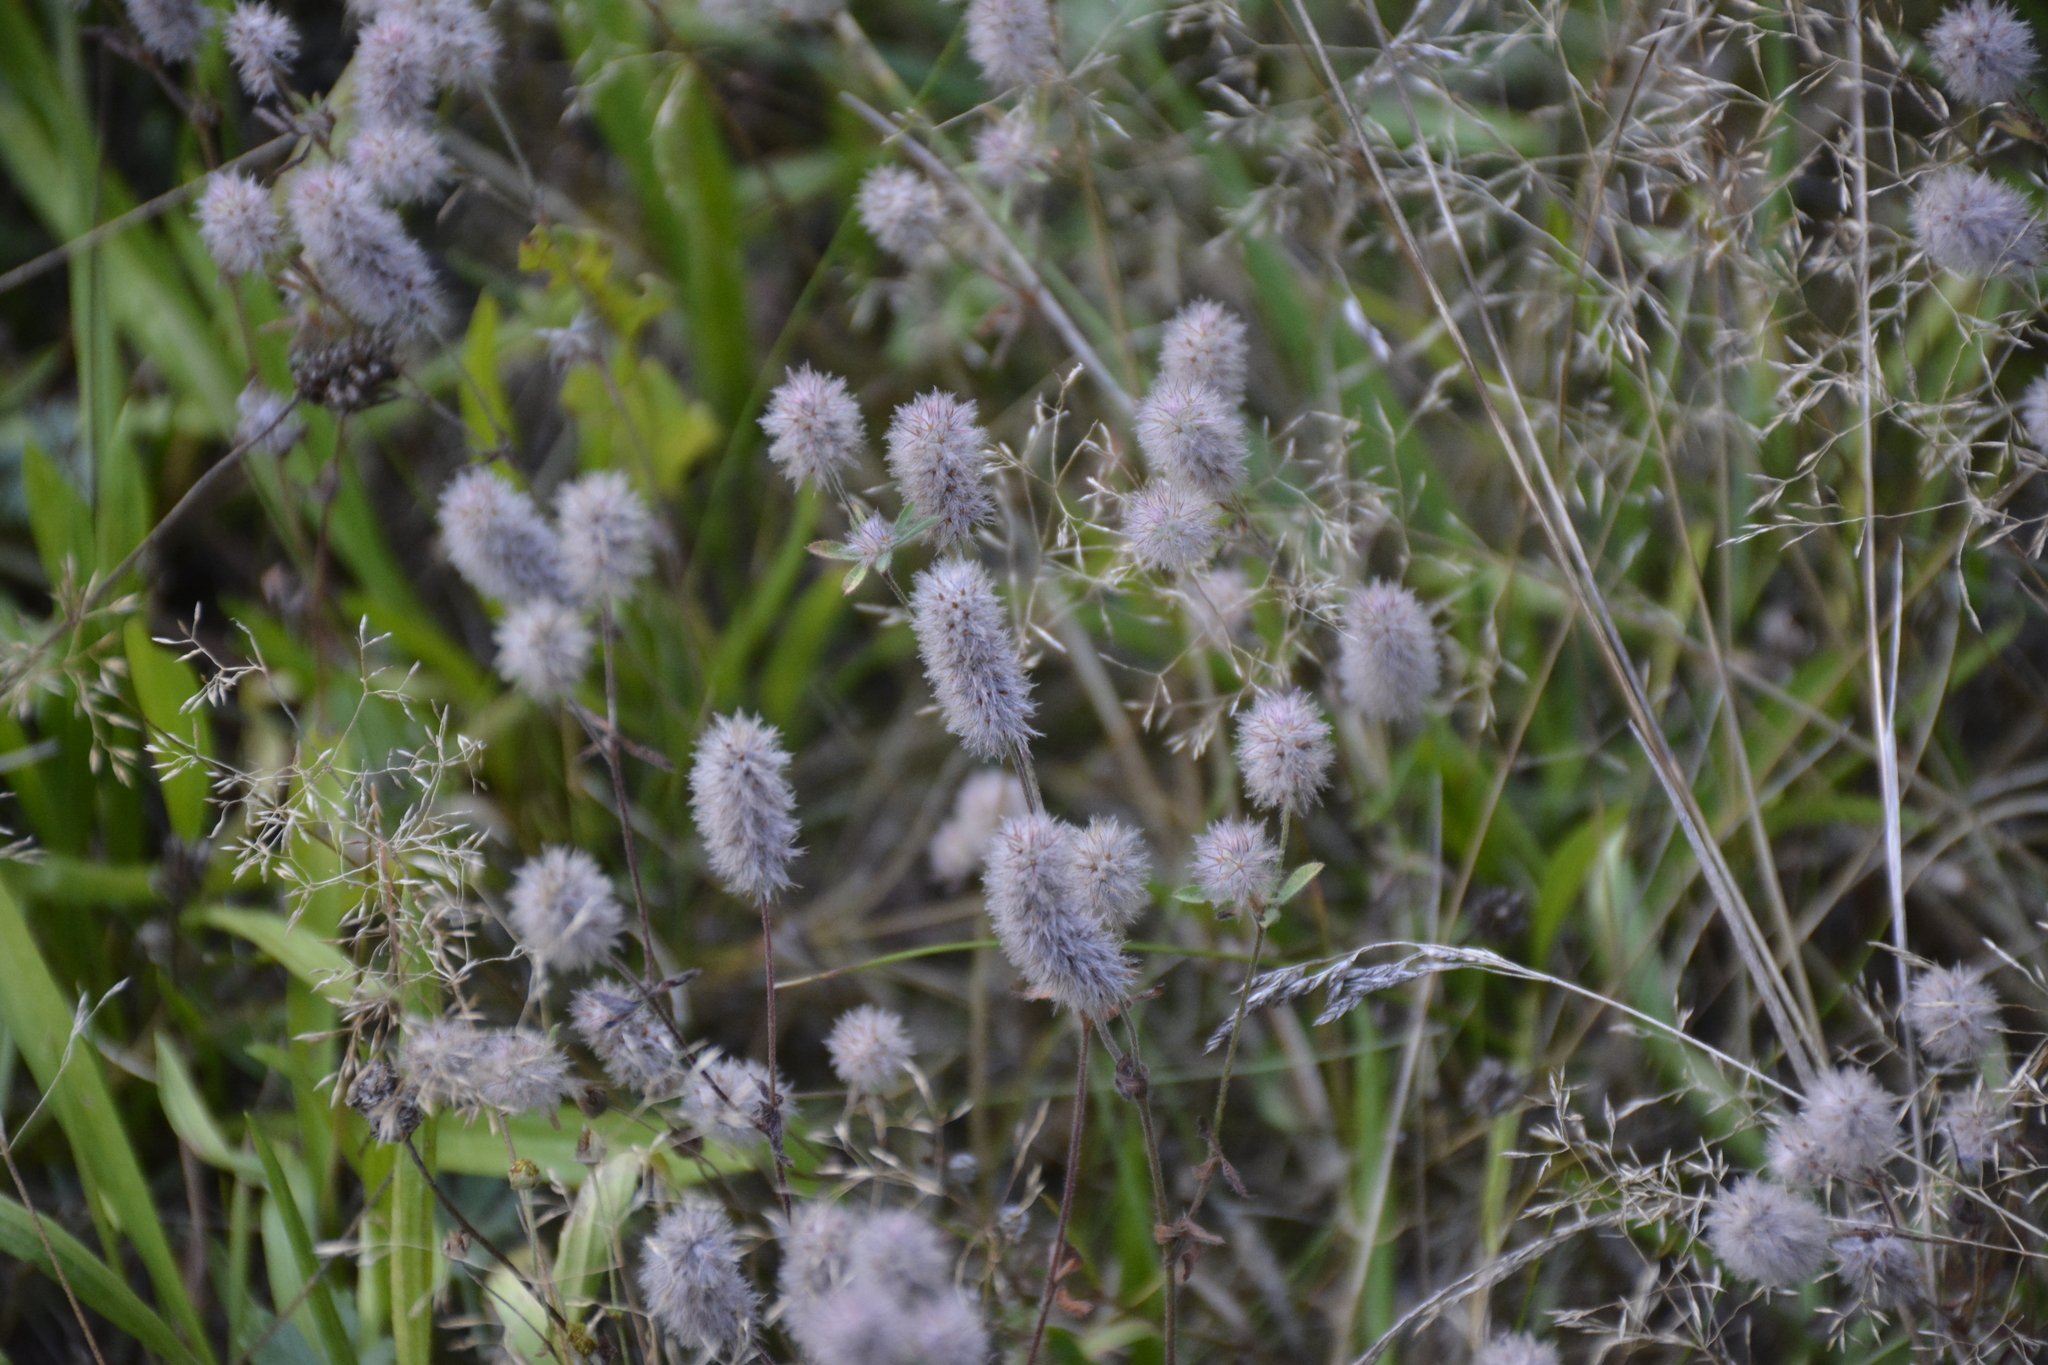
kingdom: Plantae
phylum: Tracheophyta
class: Magnoliopsida
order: Fabales
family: Fabaceae
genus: Trifolium
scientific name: Trifolium arvense
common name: Hare's-foot clover
